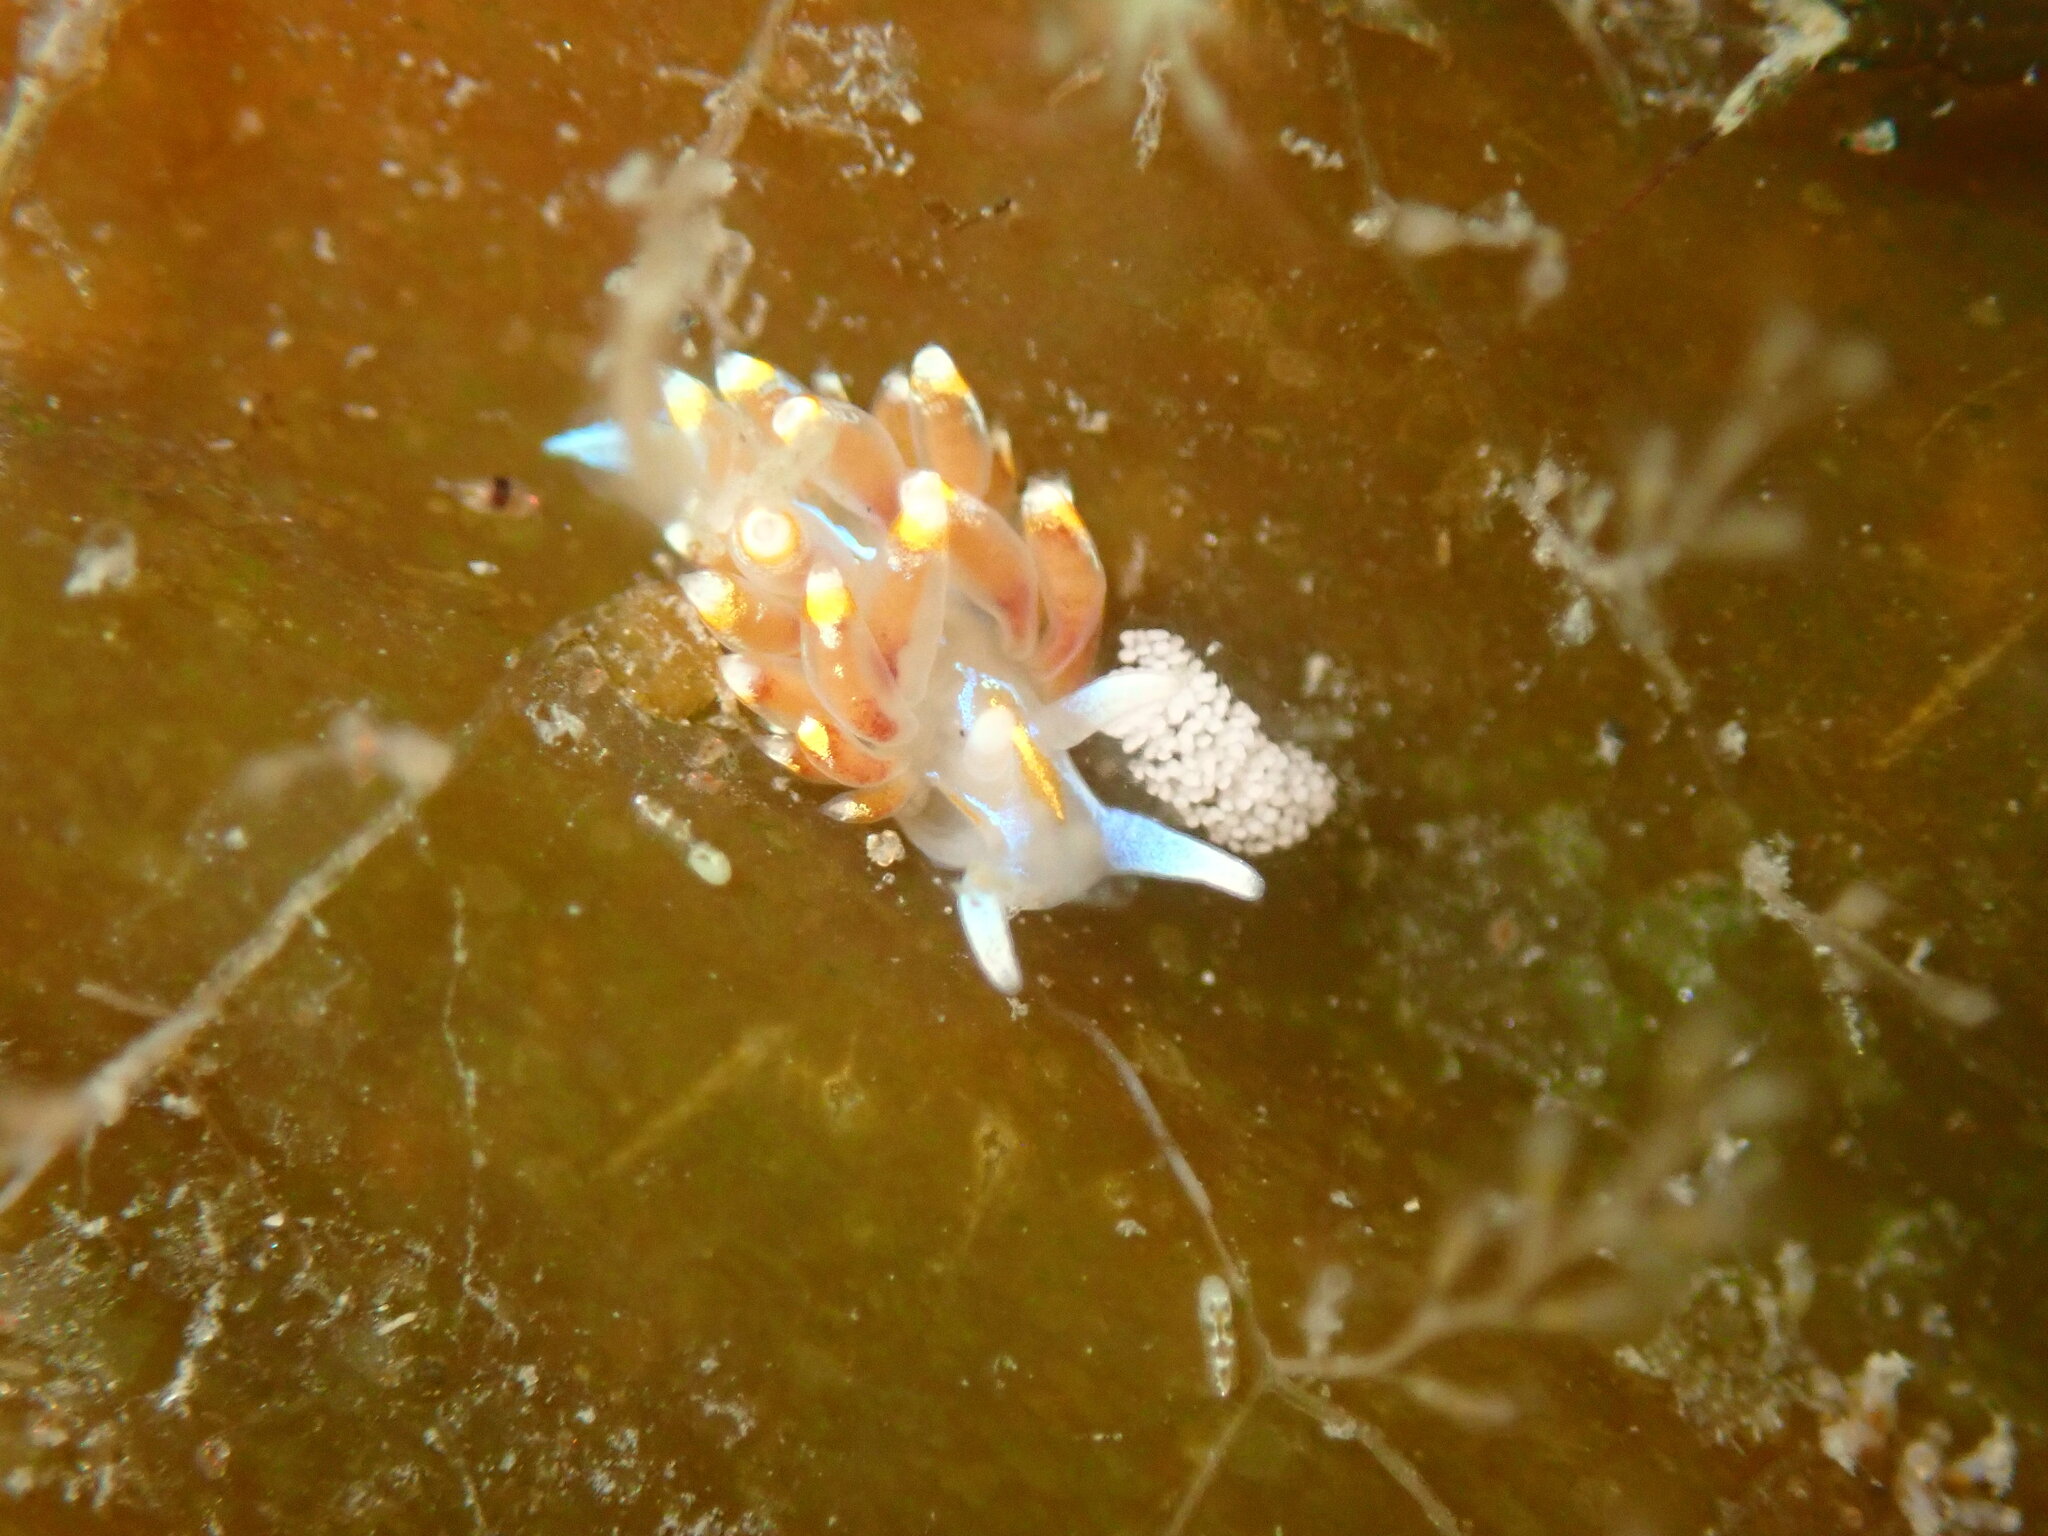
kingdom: Animalia
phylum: Mollusca
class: Gastropoda
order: Nudibranchia
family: Myrrhinidae
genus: Hermissenda
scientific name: Hermissenda opalescens
